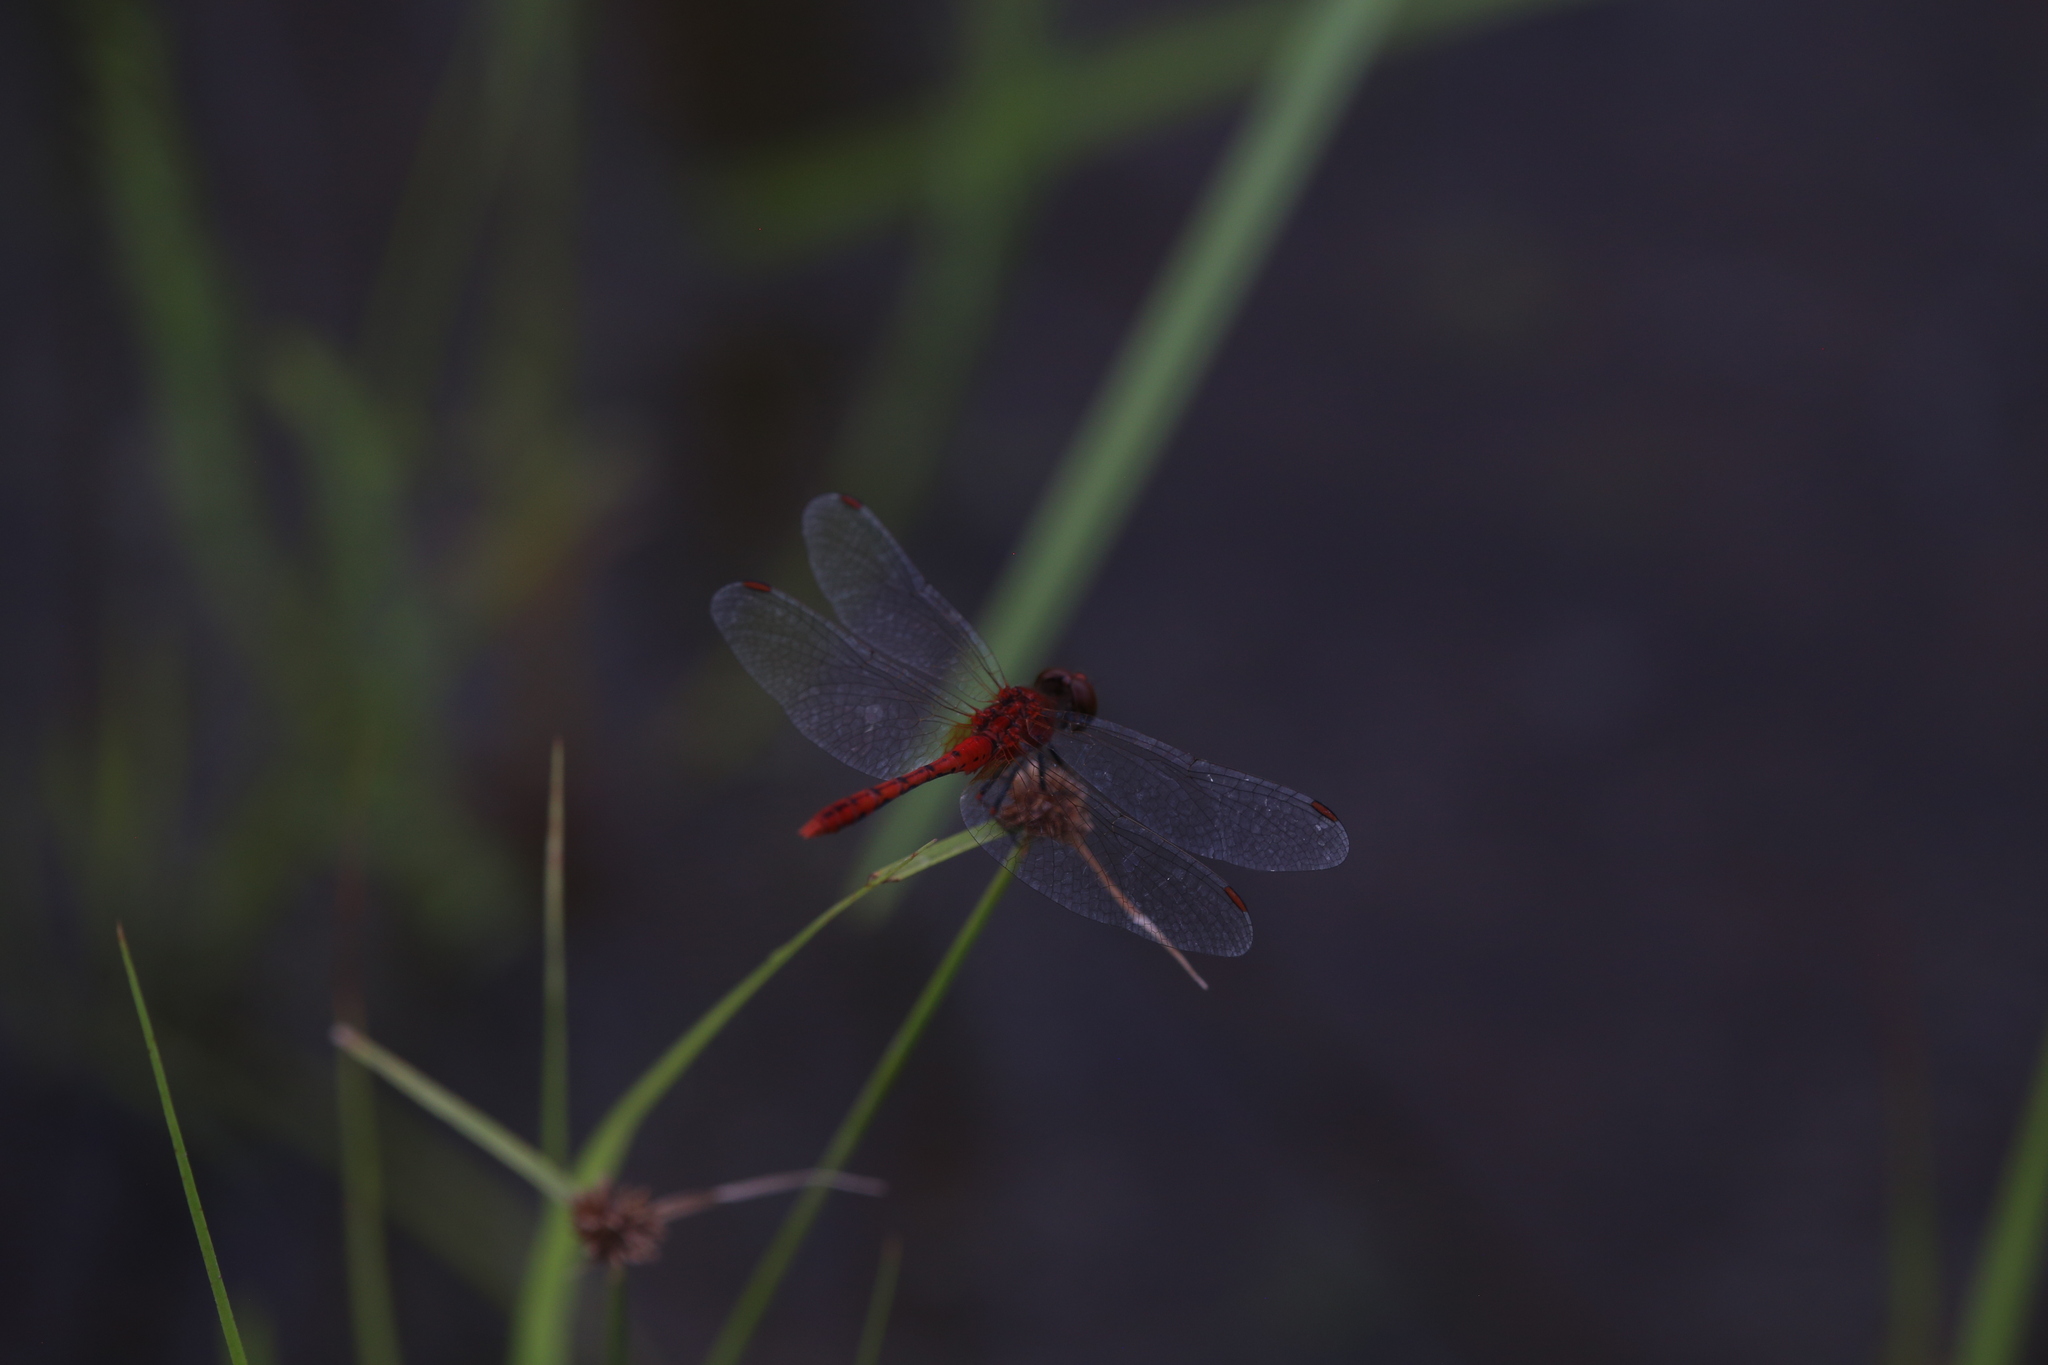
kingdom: Animalia
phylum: Arthropoda
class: Insecta
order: Odonata
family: Libellulidae
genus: Diplacodes
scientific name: Diplacodes bipunctata
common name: Red percher dragonfly
